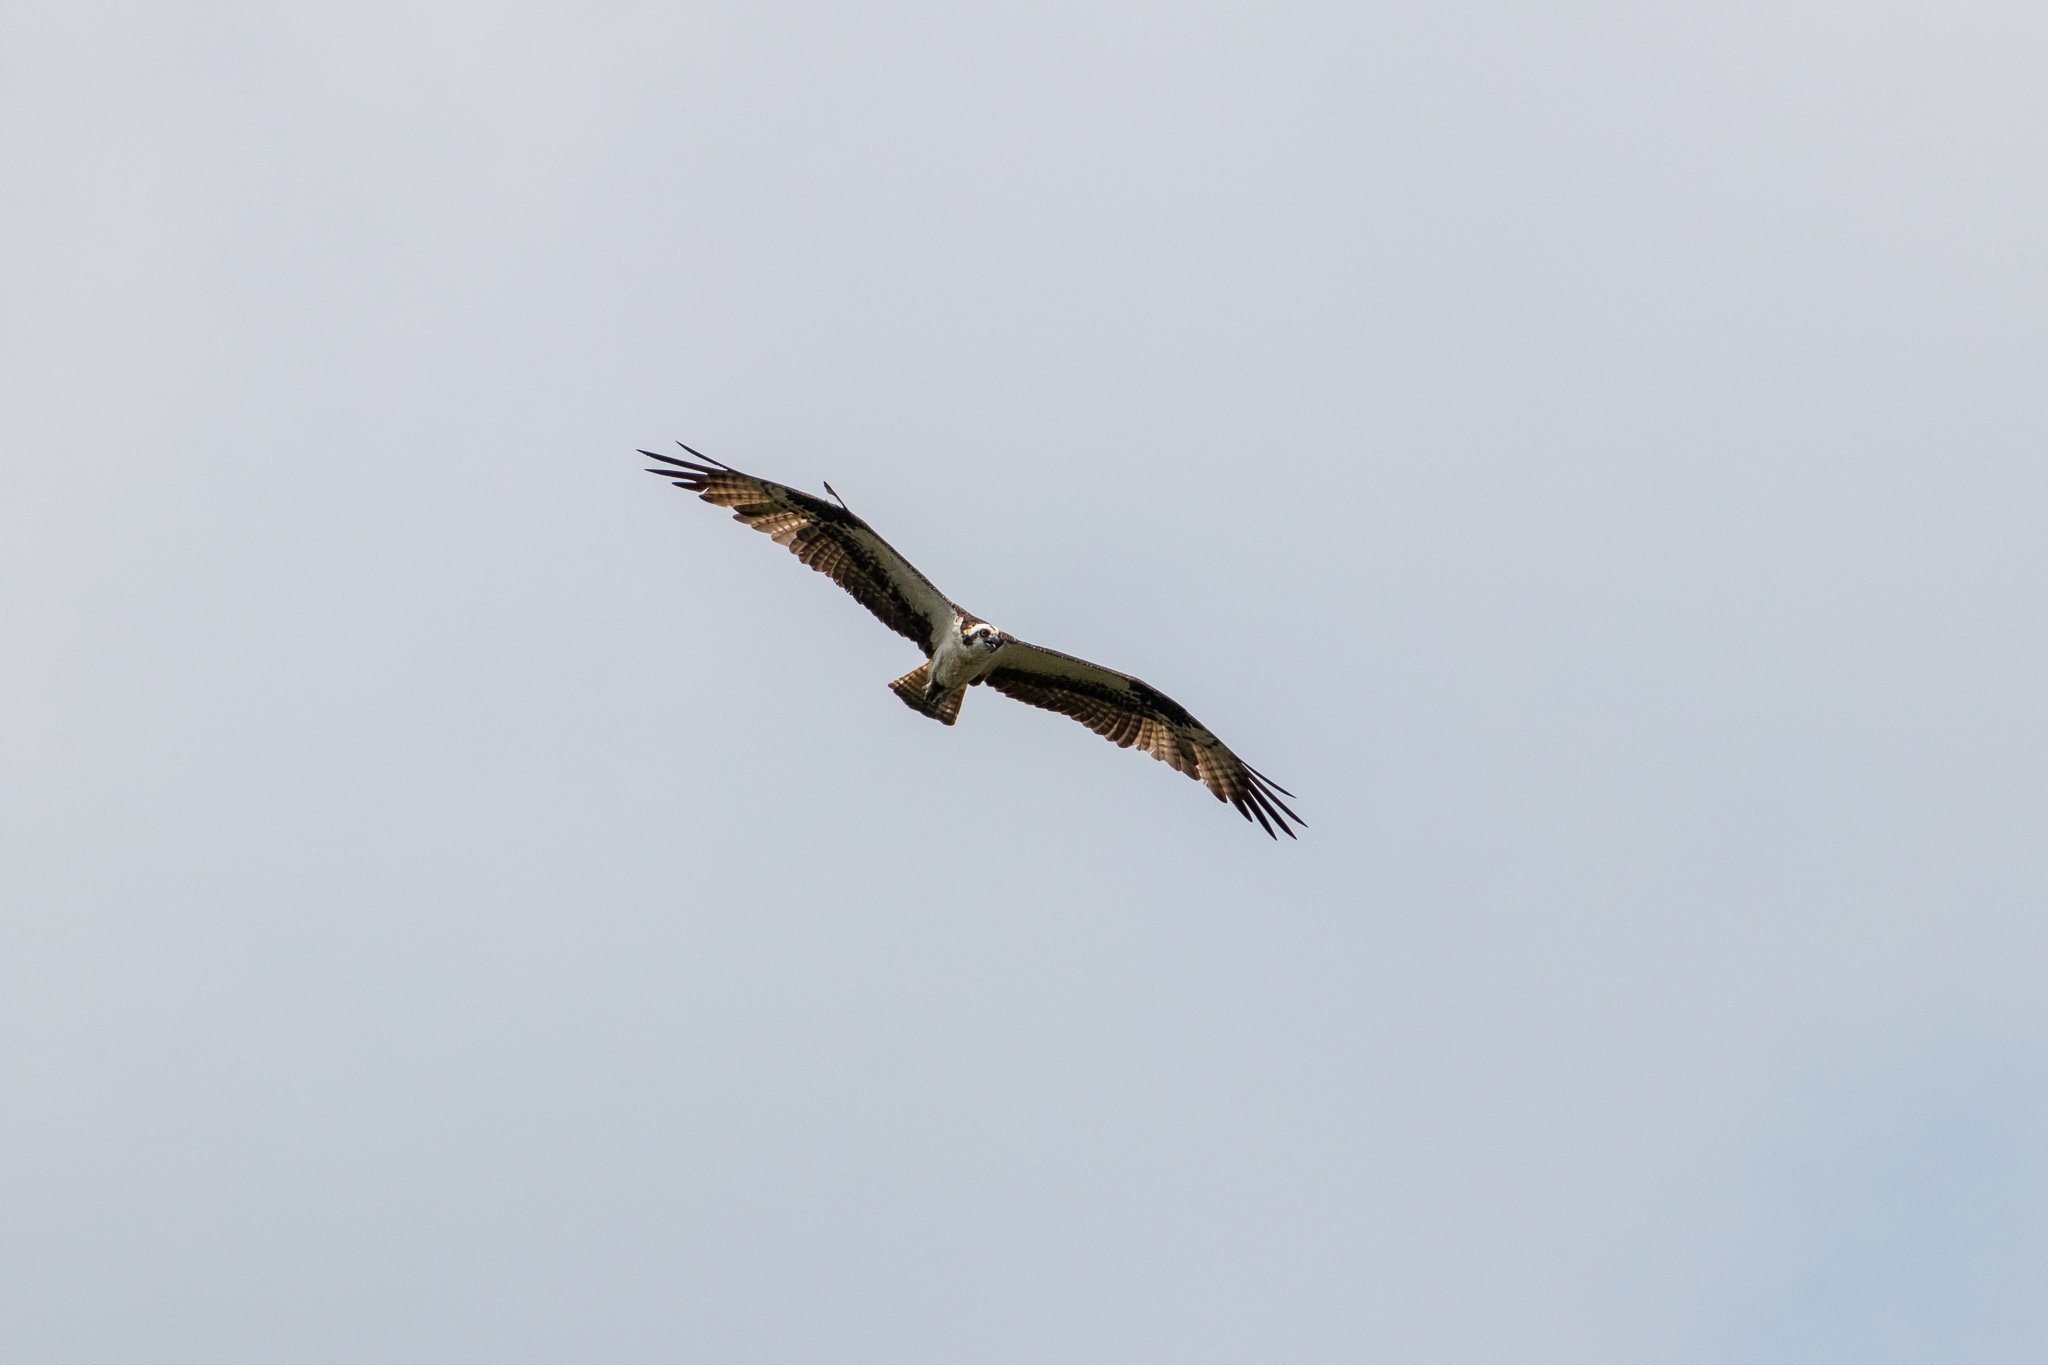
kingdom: Animalia
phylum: Chordata
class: Aves
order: Accipitriformes
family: Pandionidae
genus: Pandion
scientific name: Pandion haliaetus
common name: Osprey
